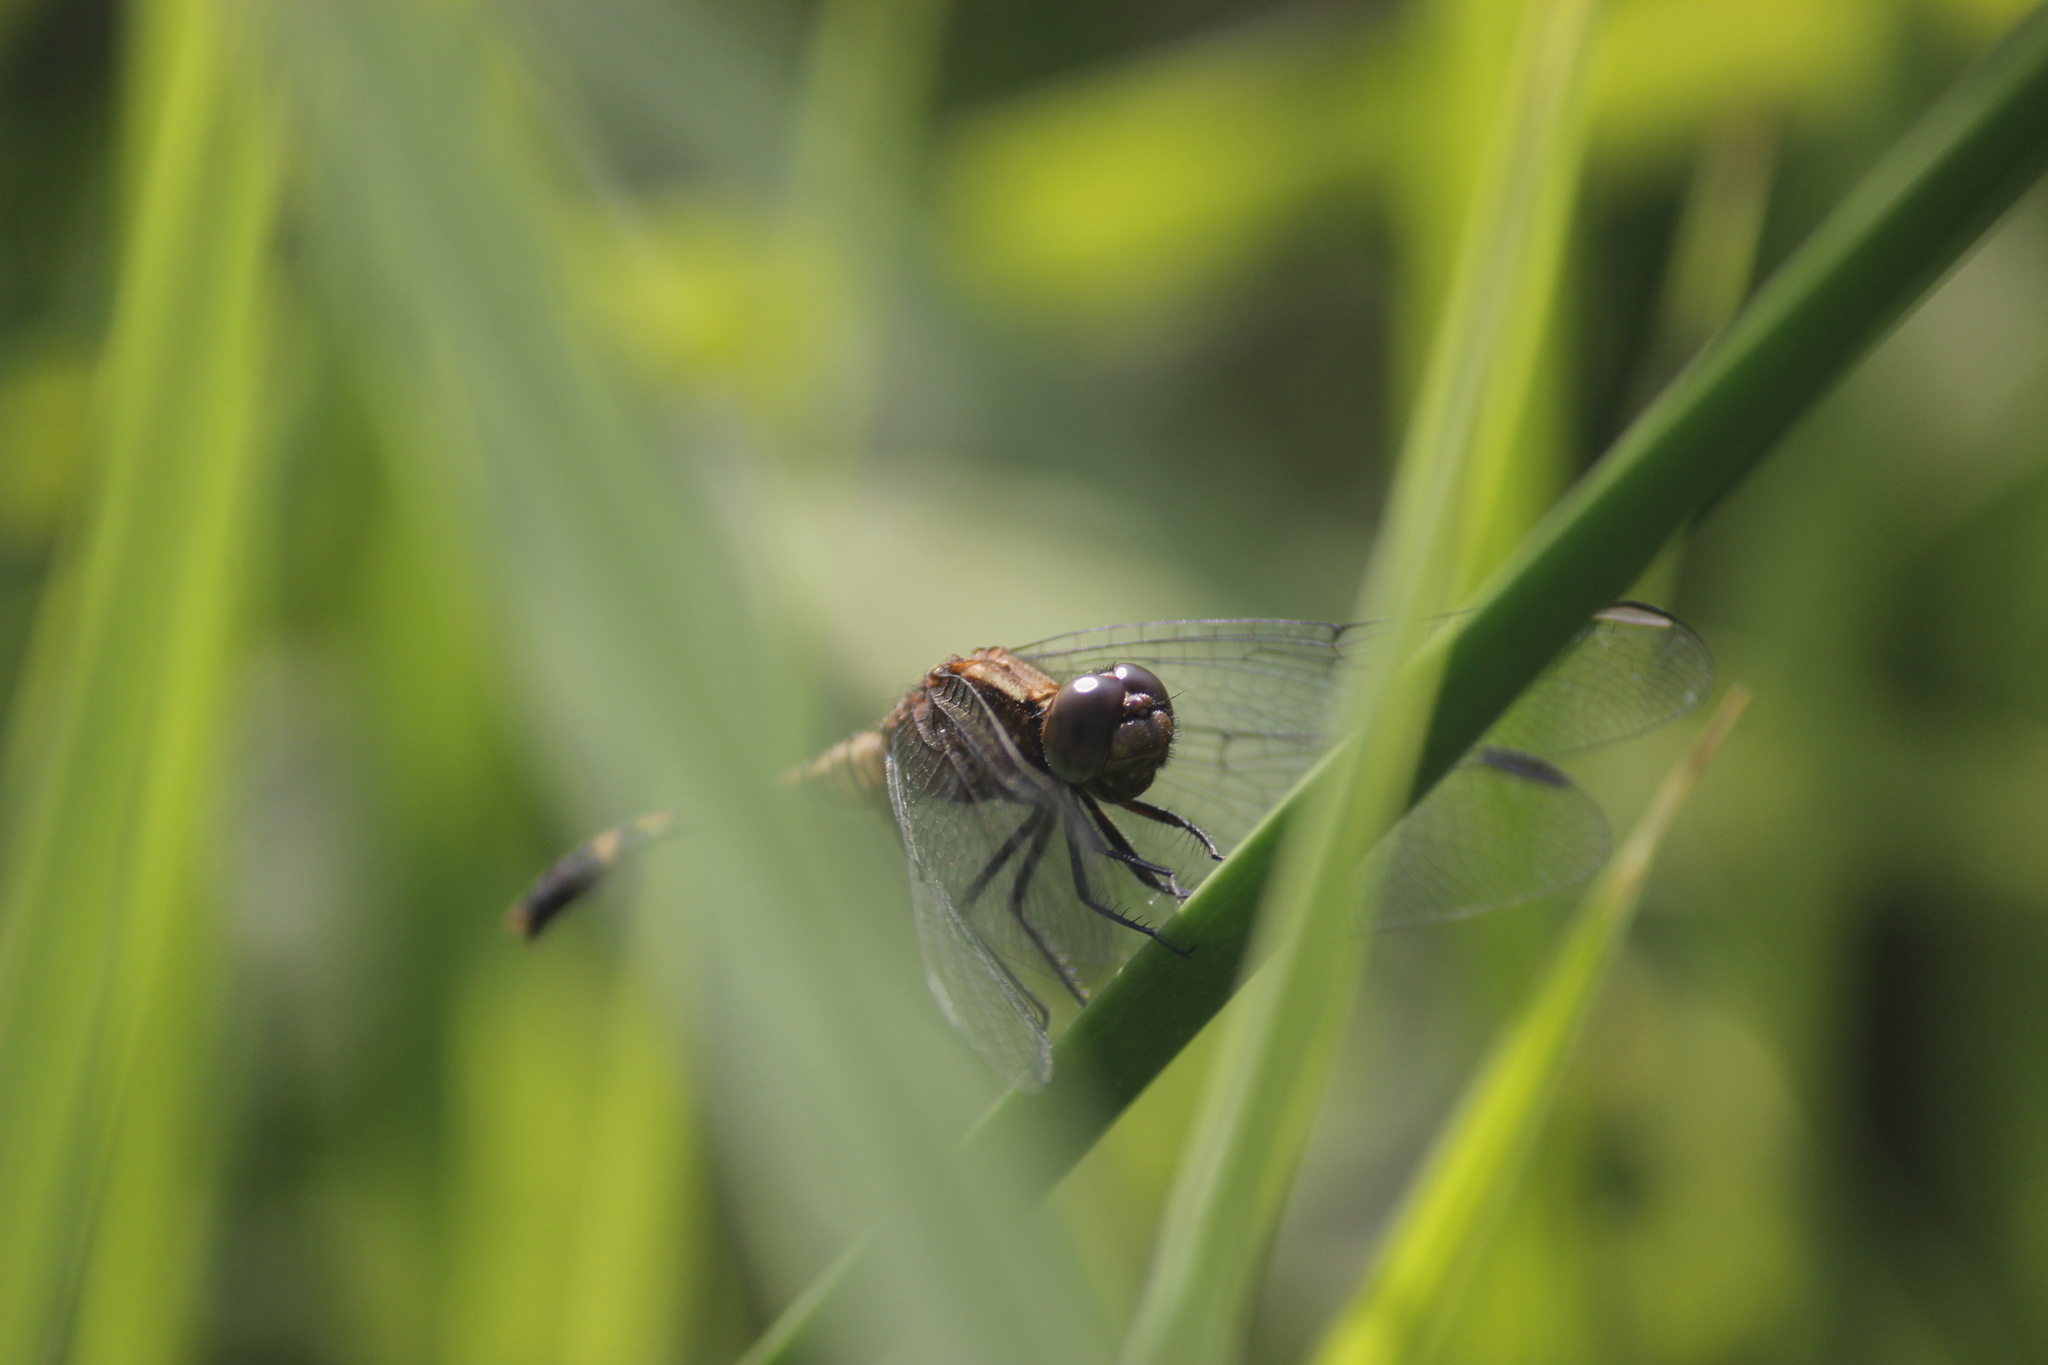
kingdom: Animalia
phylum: Arthropoda
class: Insecta
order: Odonata
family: Libellulidae
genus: Erythrodiplax
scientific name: Erythrodiplax cleopatra
